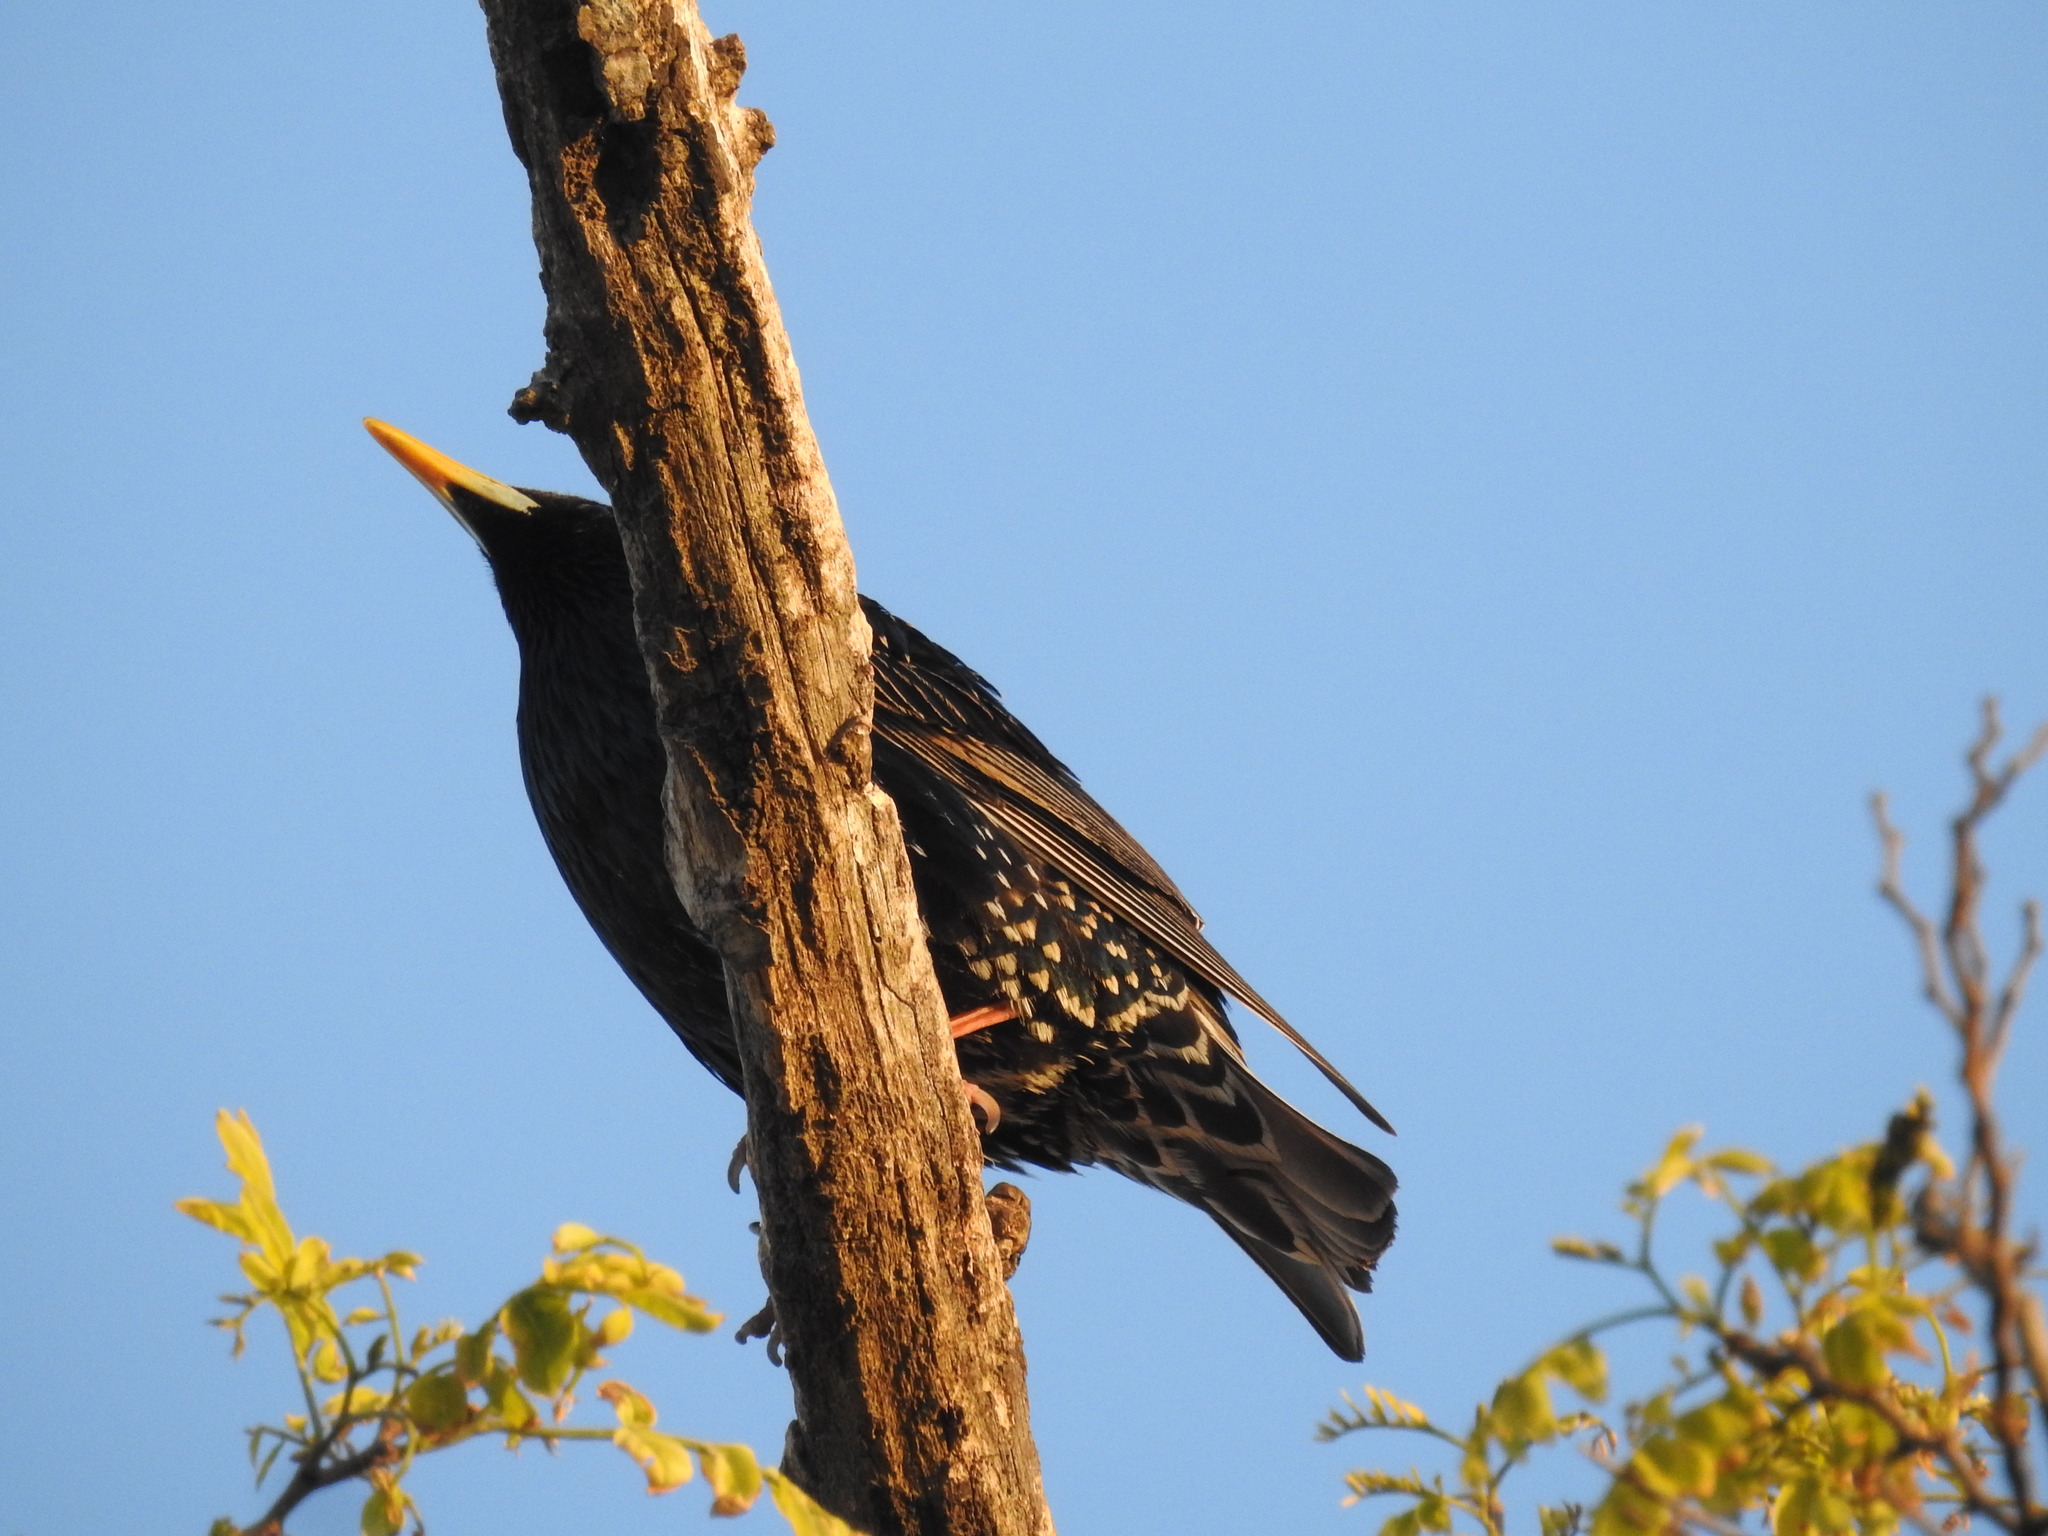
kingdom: Animalia
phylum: Chordata
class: Aves
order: Passeriformes
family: Sturnidae
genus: Sturnus
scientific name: Sturnus vulgaris
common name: Common starling
